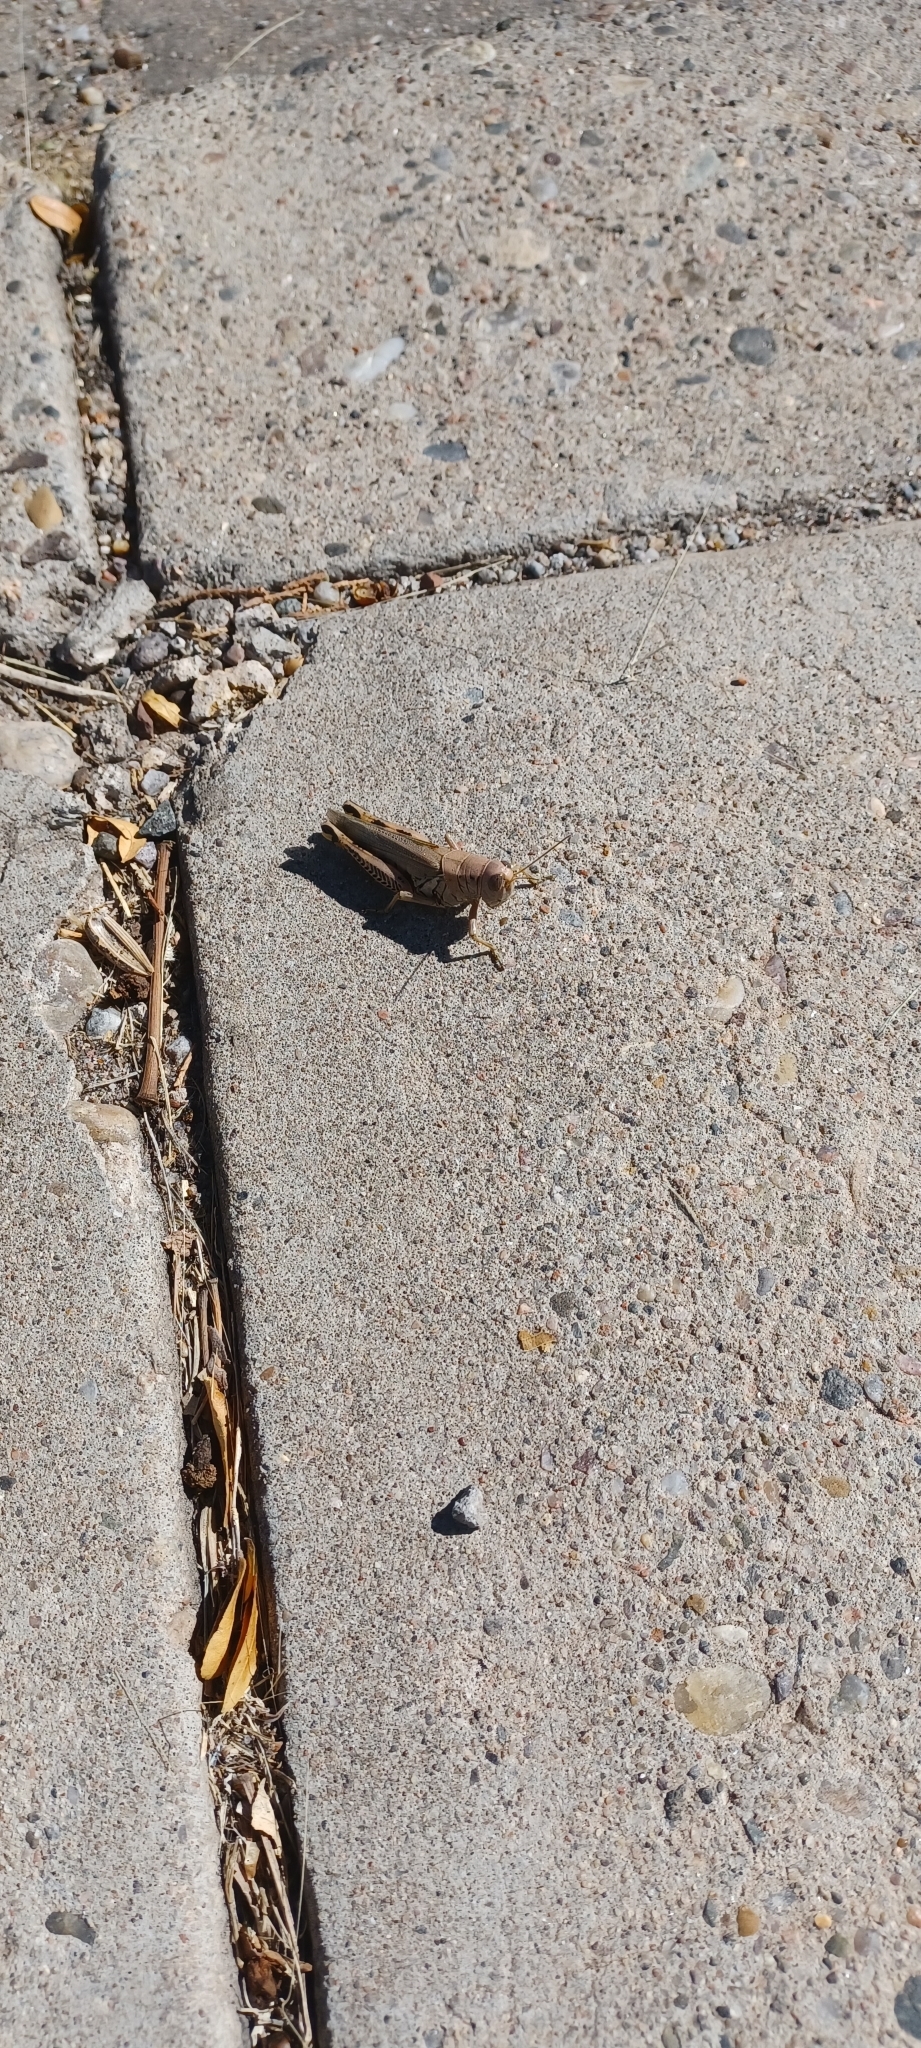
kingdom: Animalia
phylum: Arthropoda
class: Insecta
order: Orthoptera
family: Acrididae
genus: Melanoplus
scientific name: Melanoplus differentialis
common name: Differential grasshopper
